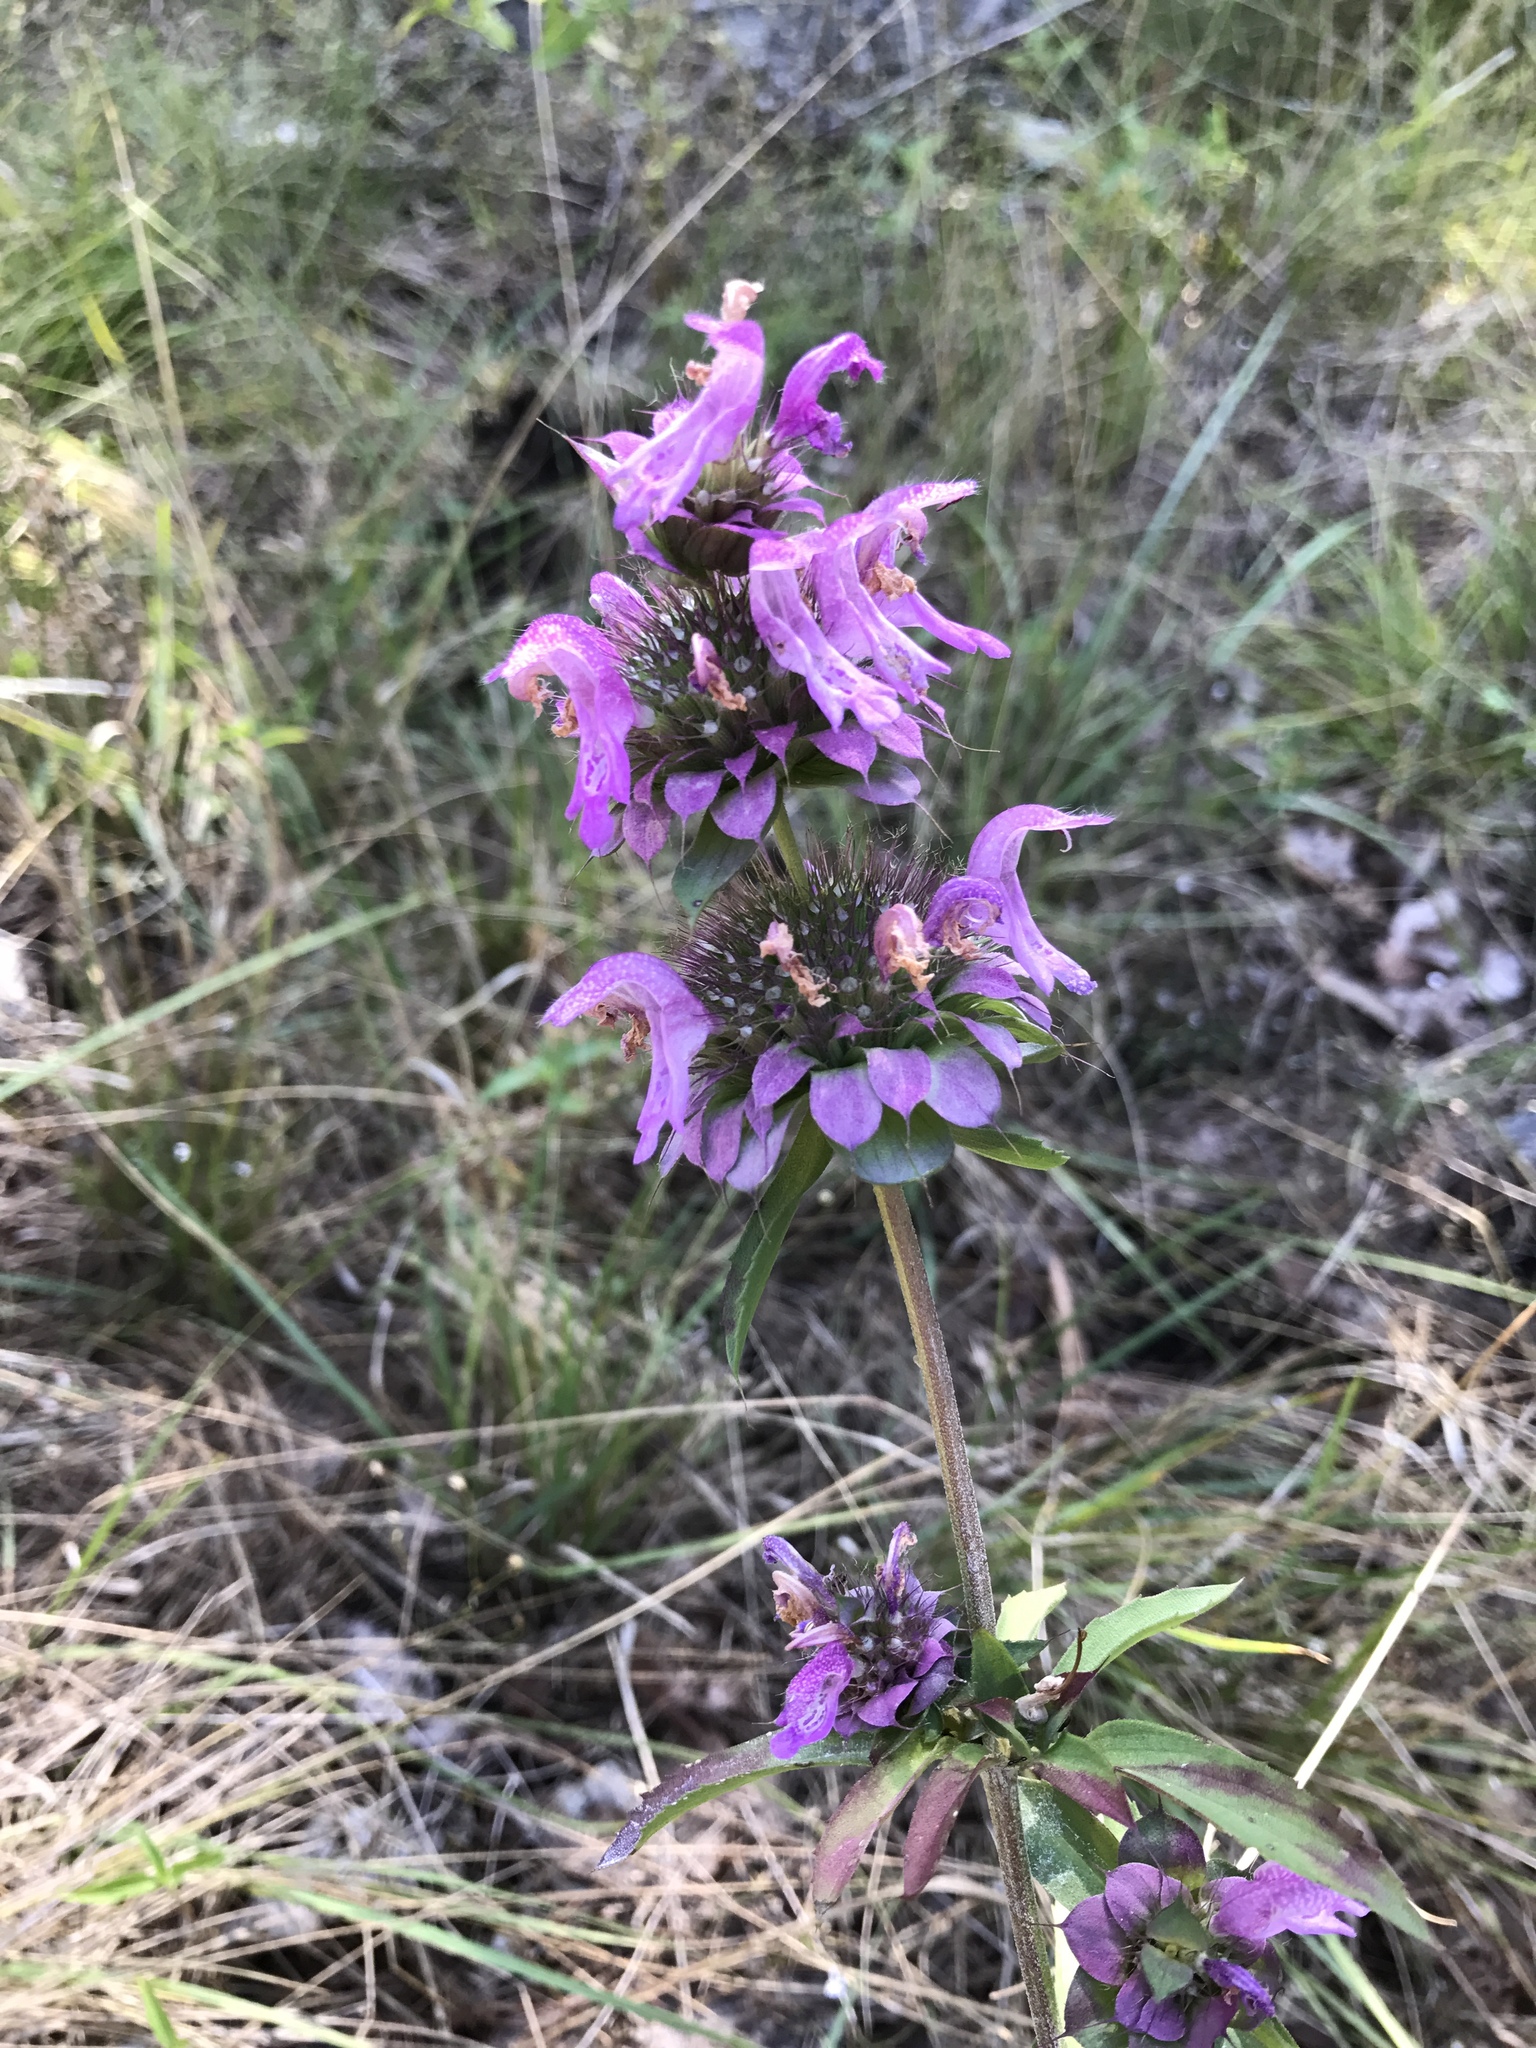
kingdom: Plantae
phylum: Tracheophyta
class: Magnoliopsida
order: Lamiales
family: Lamiaceae
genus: Monarda
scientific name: Monarda citriodora
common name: Lemon beebalm
